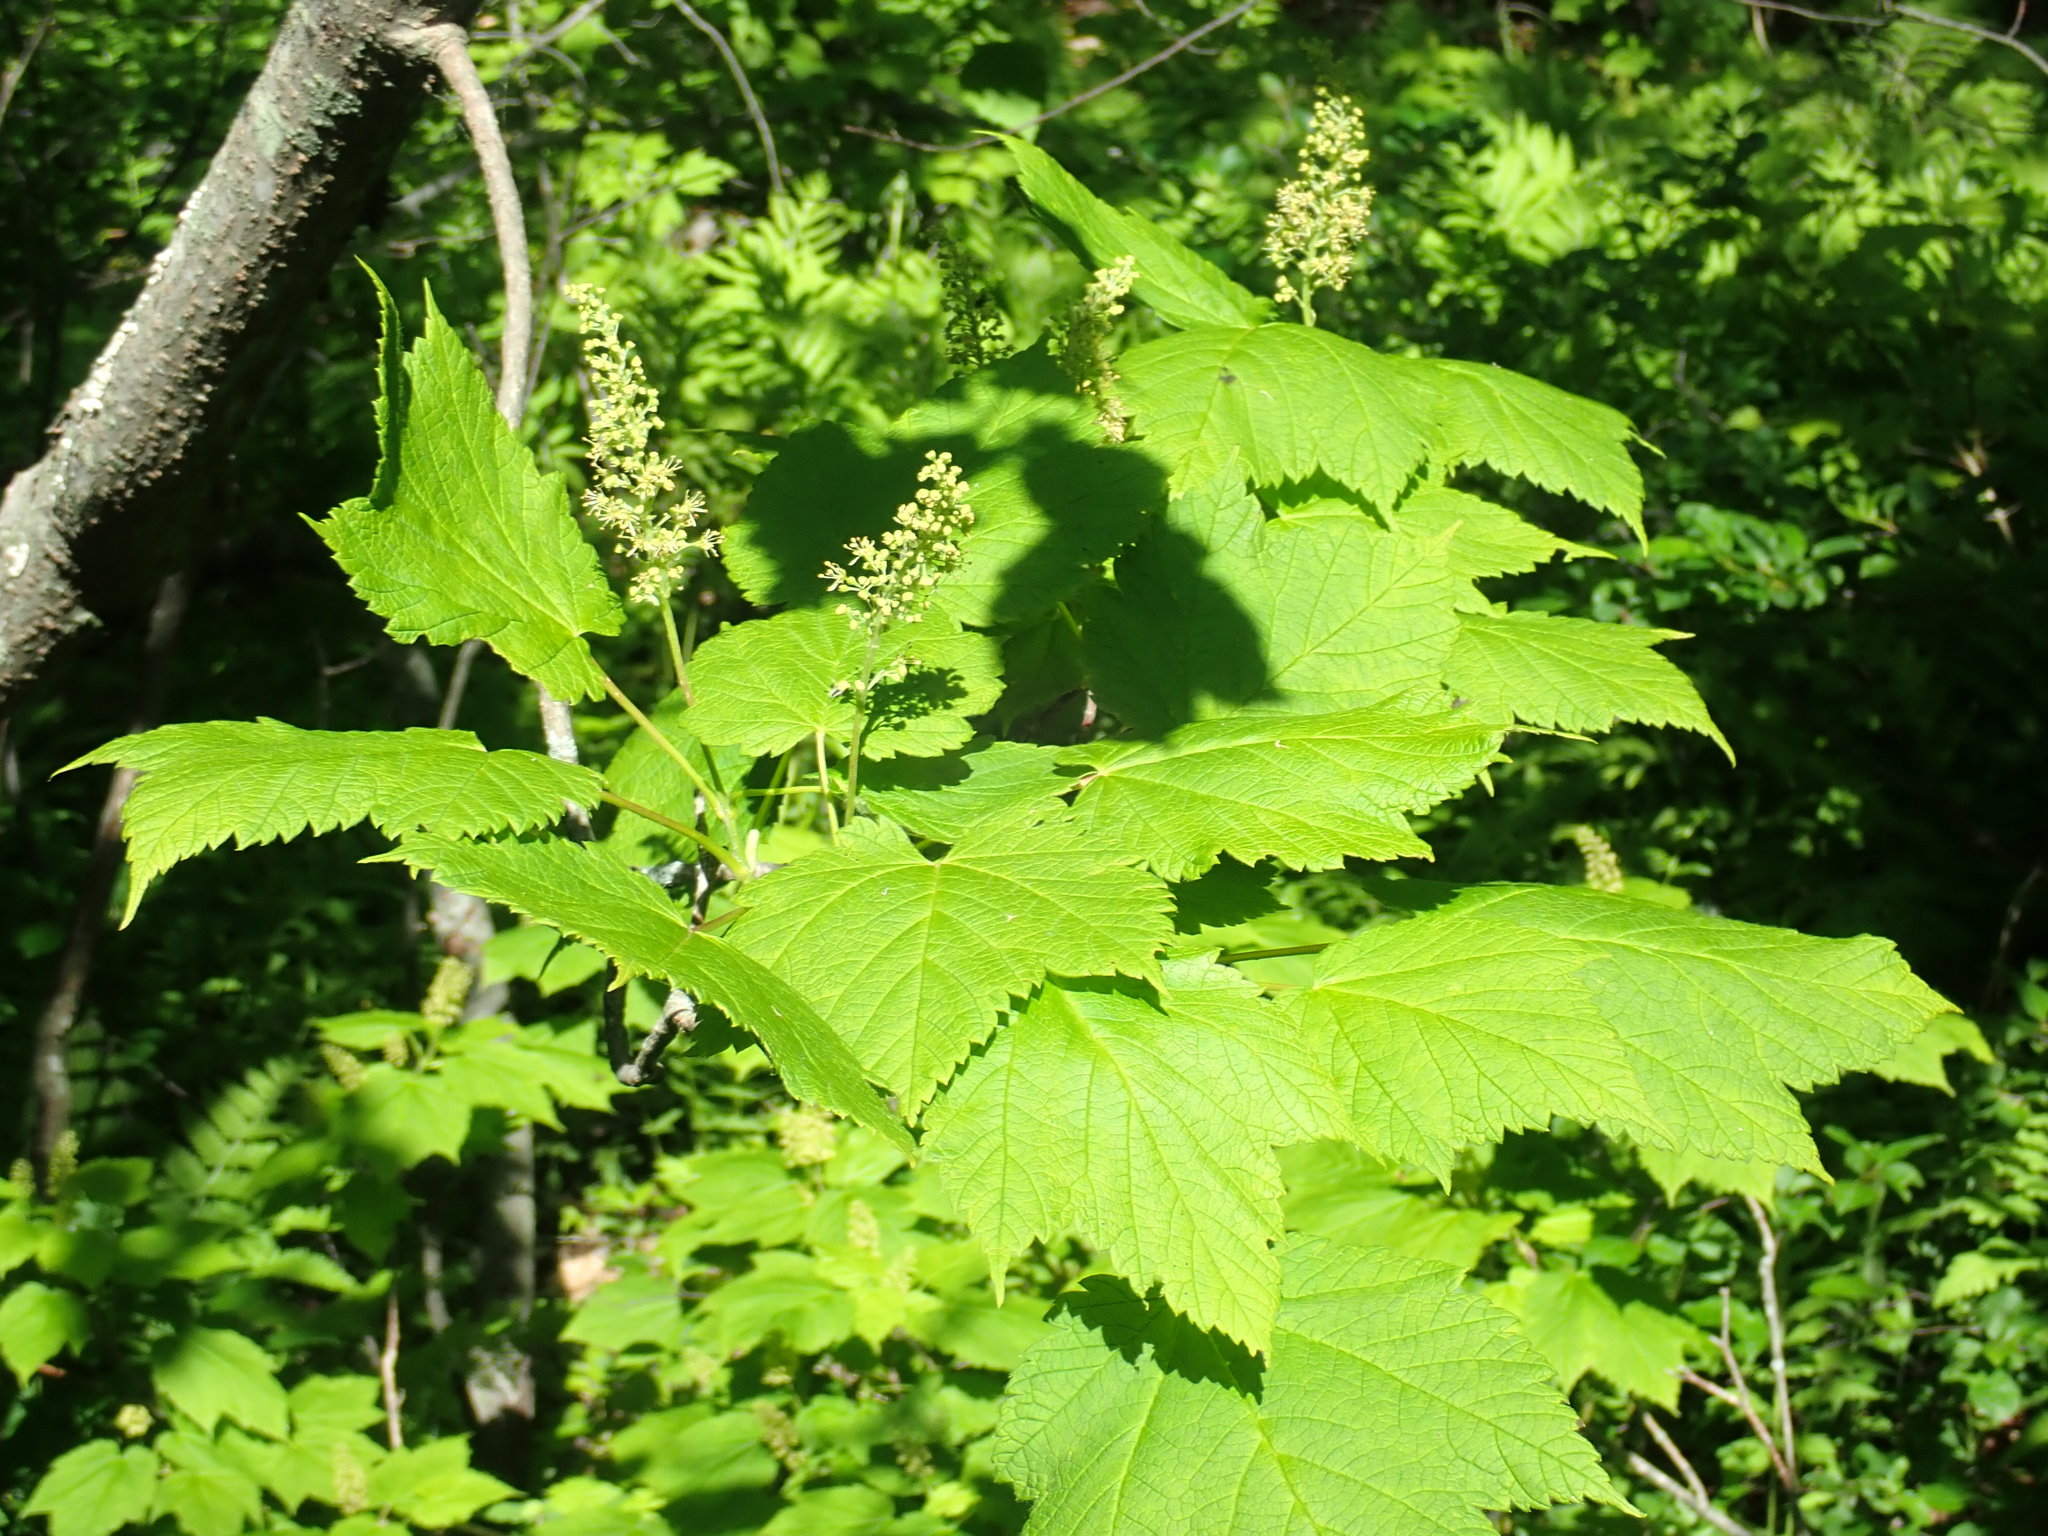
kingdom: Plantae
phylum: Tracheophyta
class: Magnoliopsida
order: Sapindales
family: Sapindaceae
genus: Acer
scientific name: Acer spicatum
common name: Mountain maple
